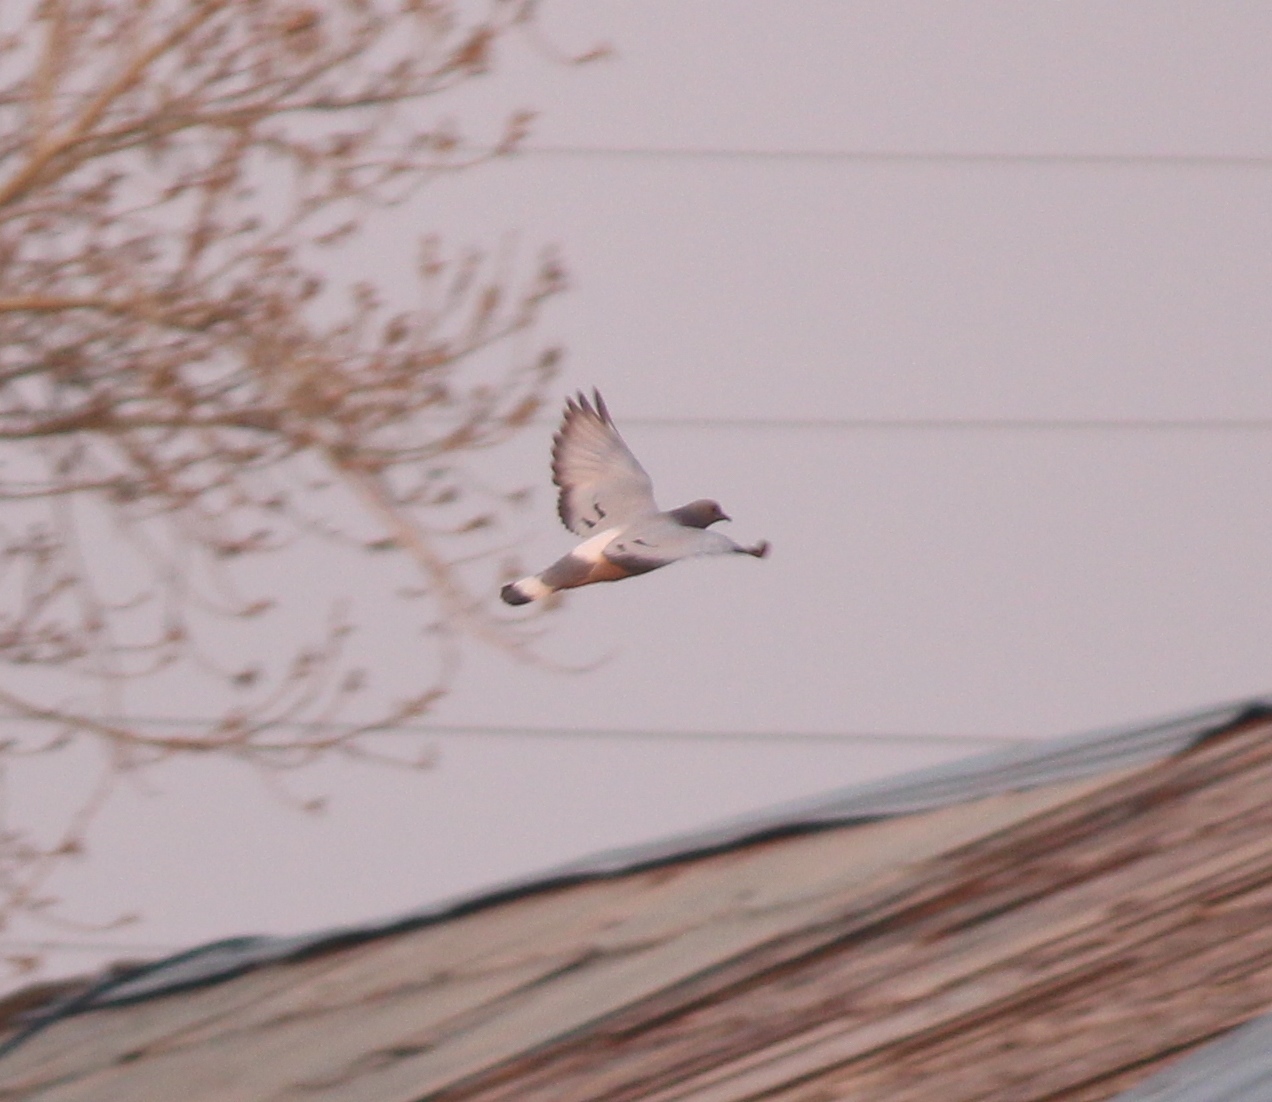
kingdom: Animalia
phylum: Chordata
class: Aves
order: Columbiformes
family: Columbidae
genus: Columba
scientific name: Columba rupestris
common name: Hill pigeon
